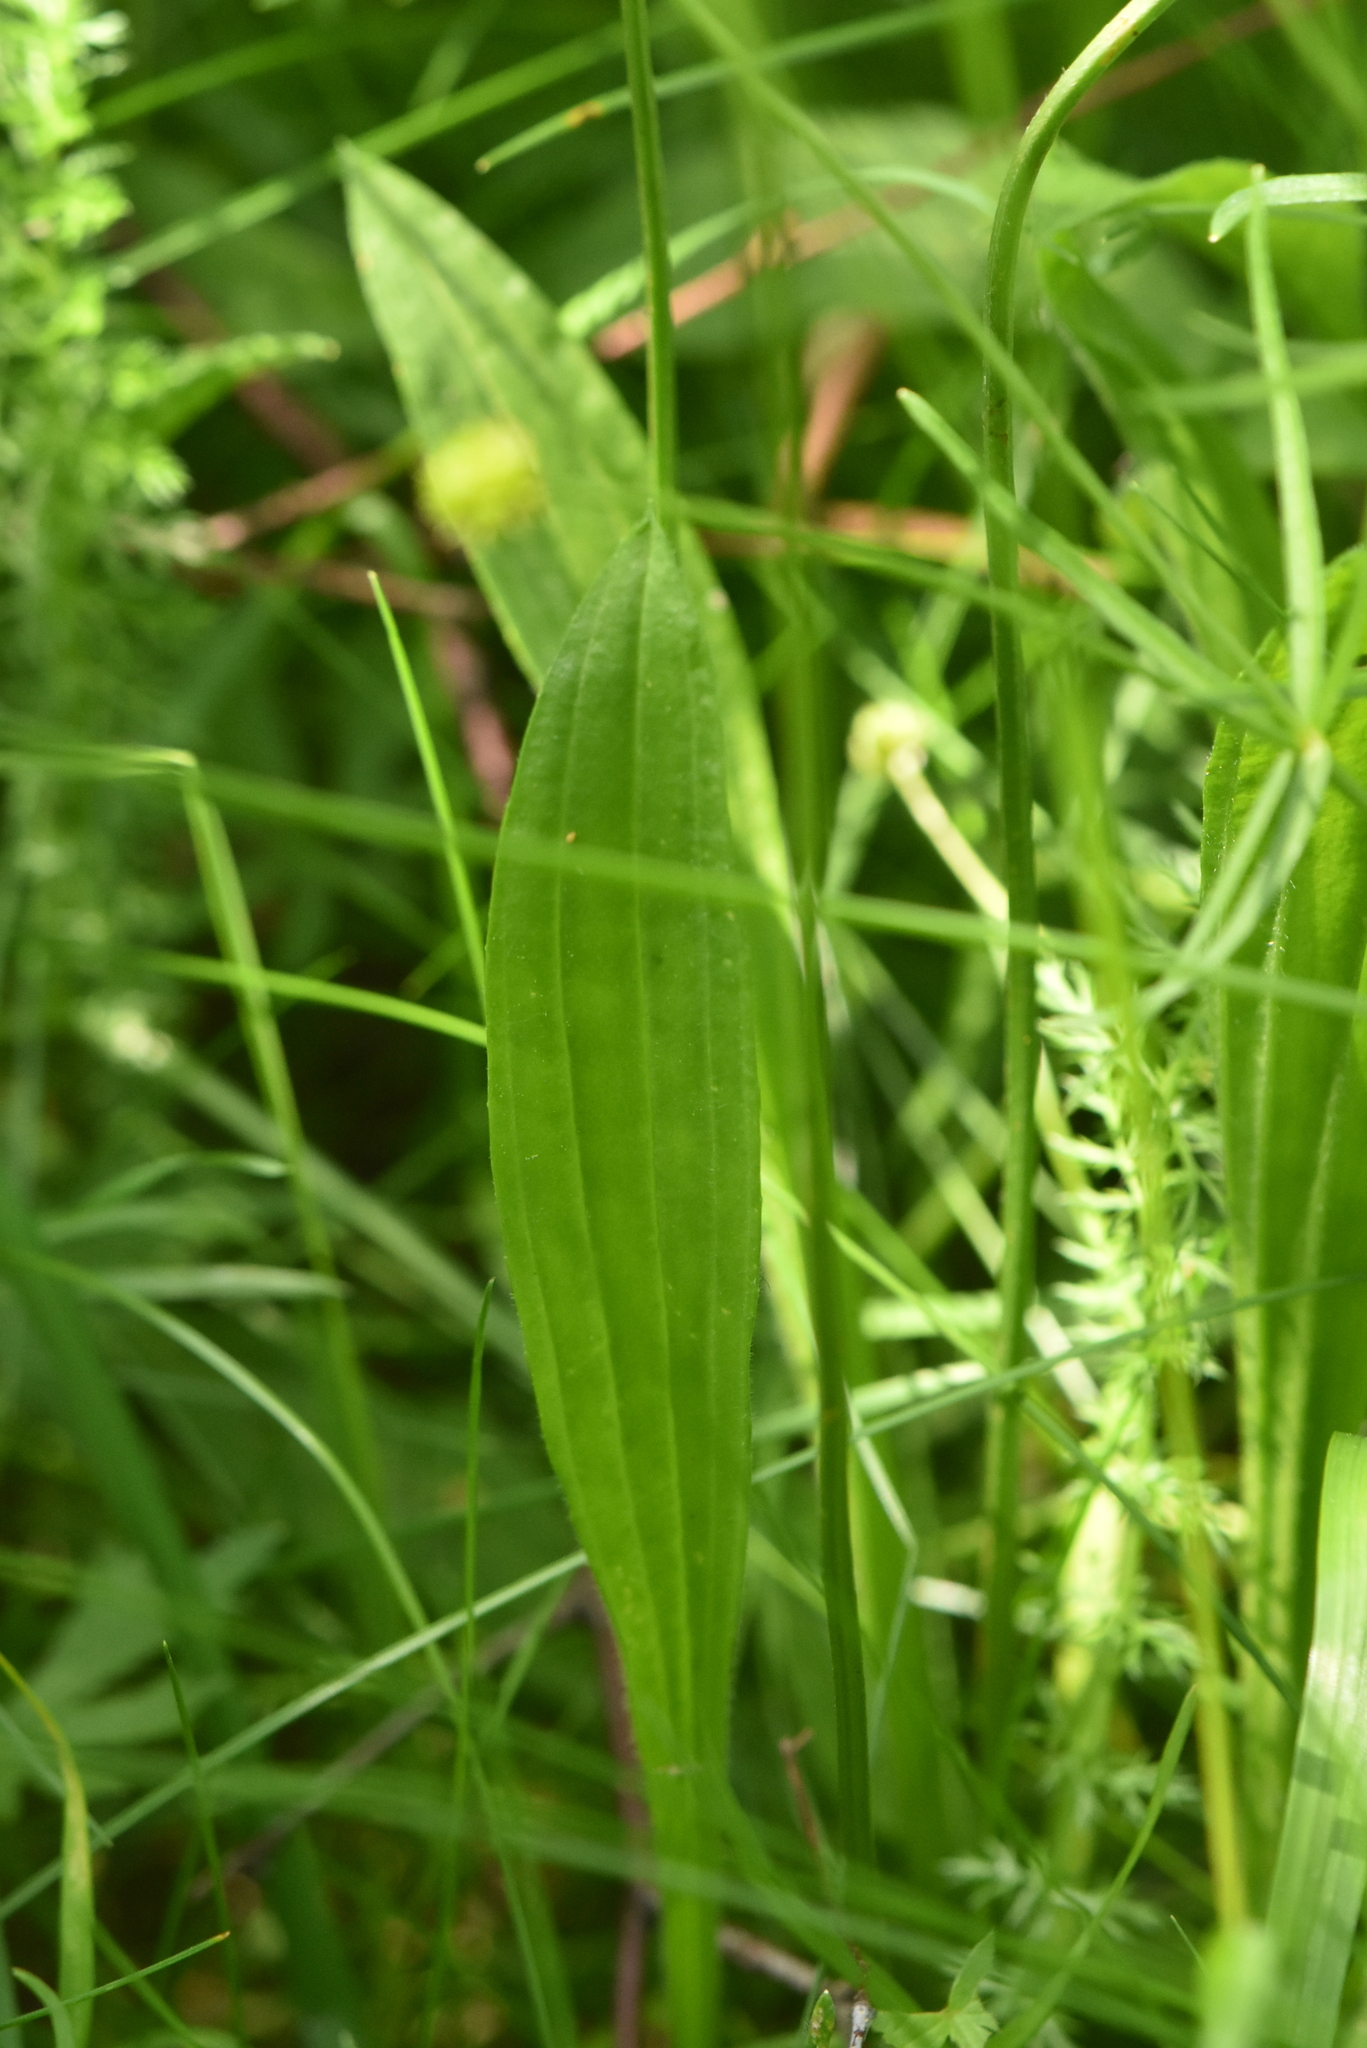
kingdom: Plantae
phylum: Tracheophyta
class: Magnoliopsida
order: Lamiales
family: Plantaginaceae
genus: Plantago
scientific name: Plantago lanceolata
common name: Ribwort plantain
